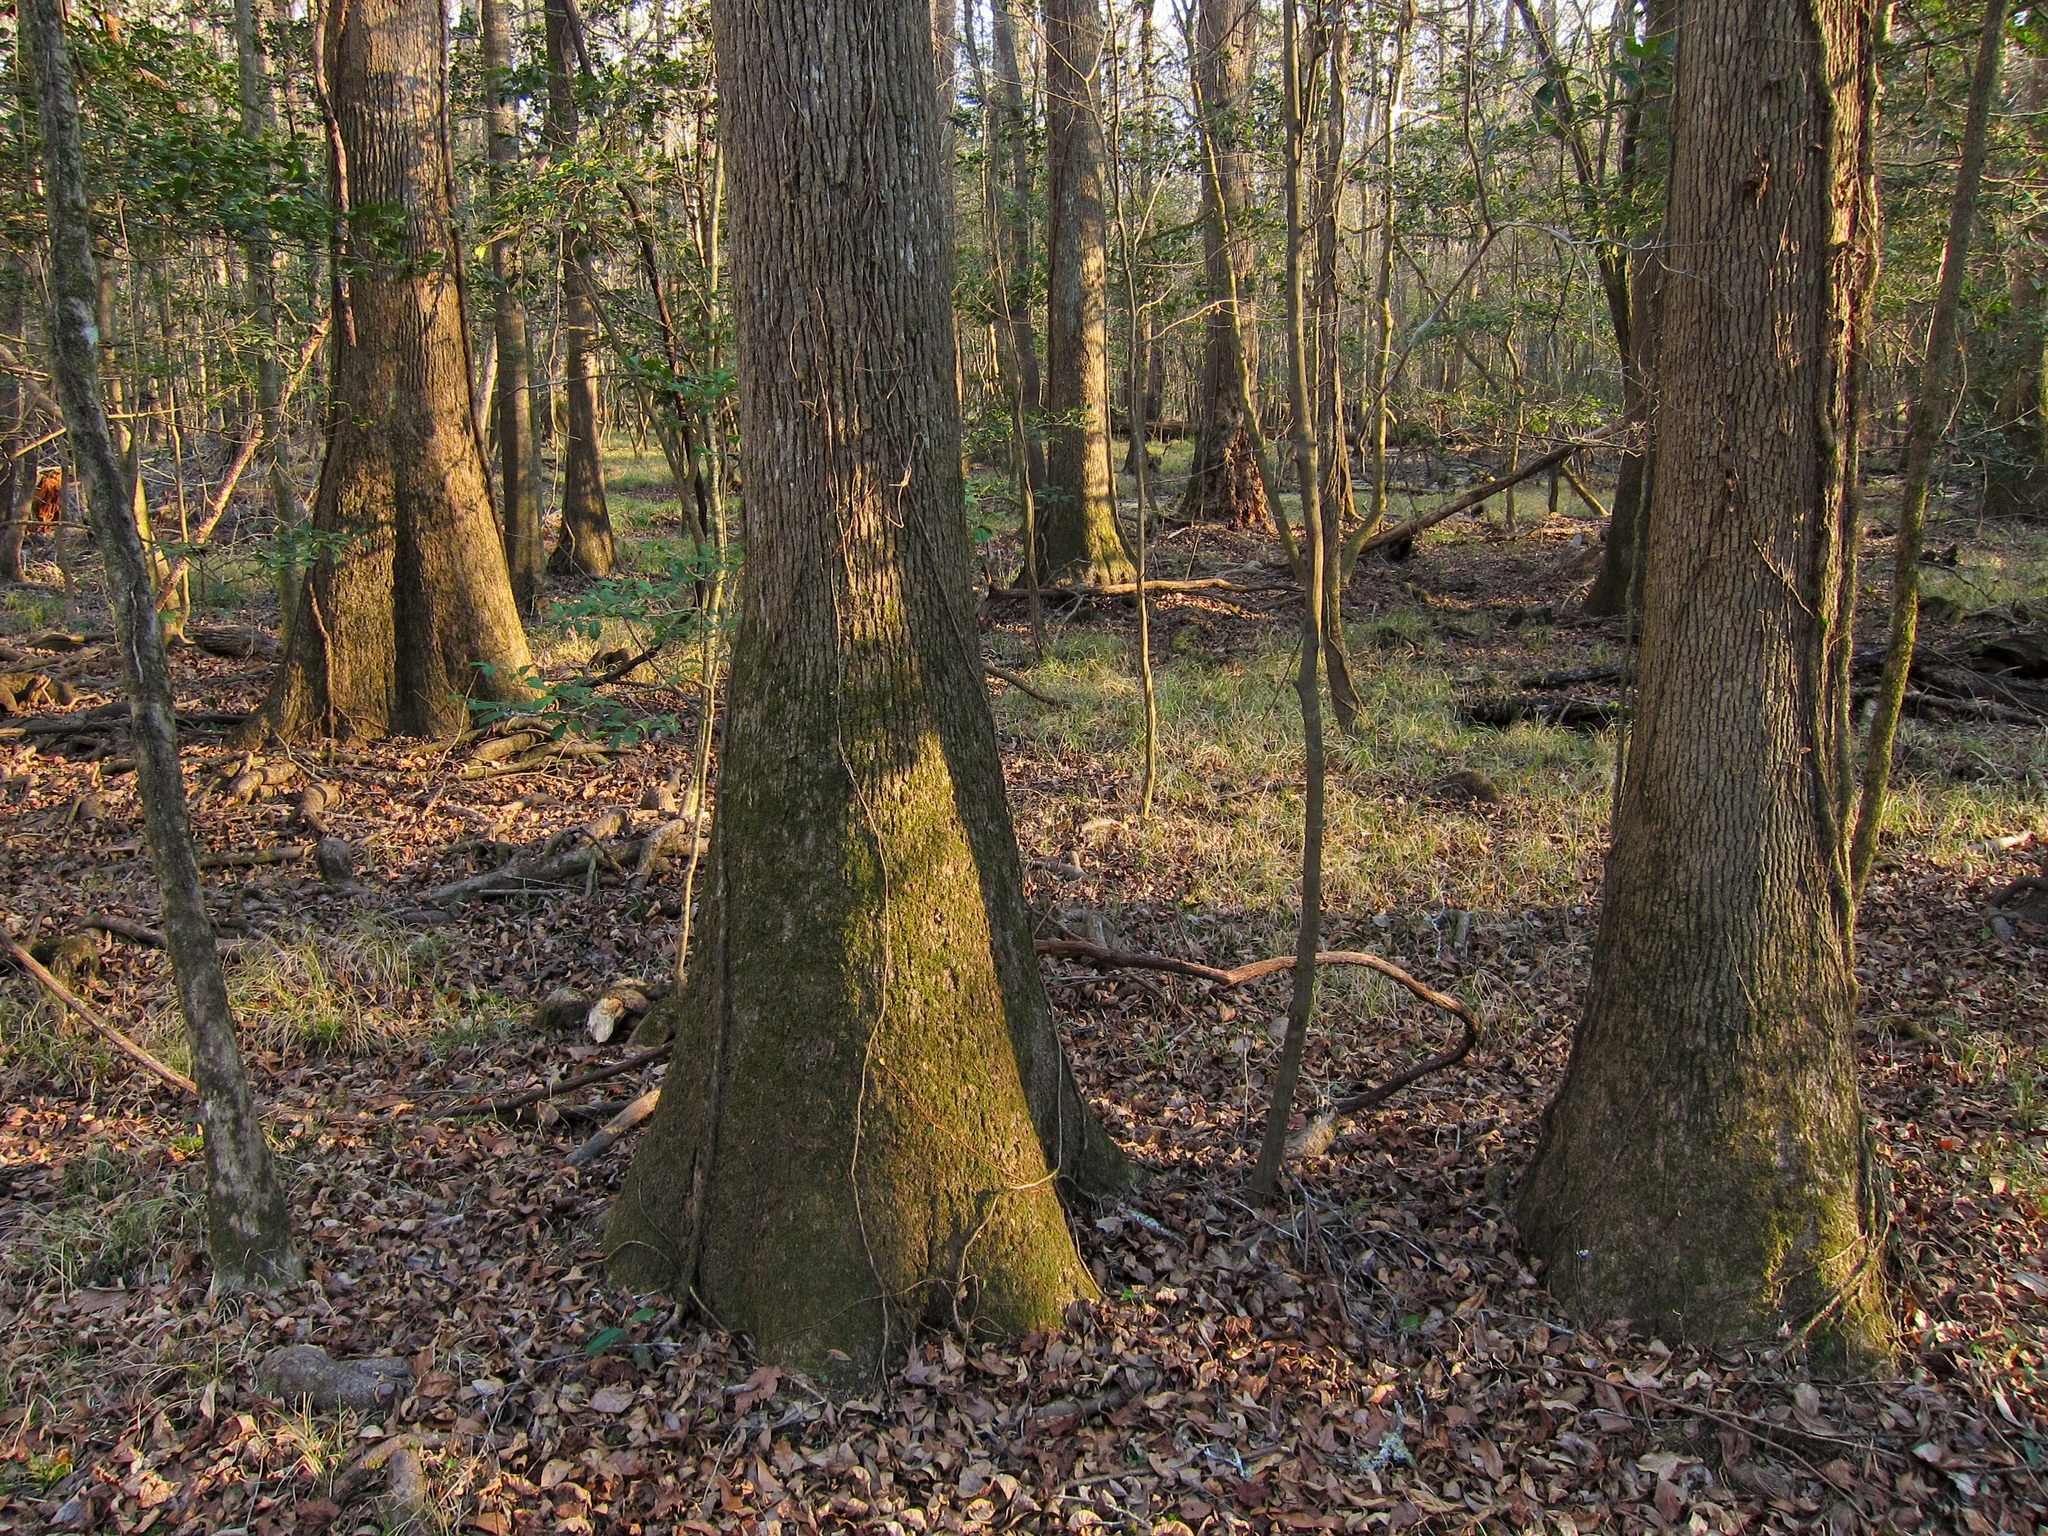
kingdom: Plantae
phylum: Tracheophyta
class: Magnoliopsida
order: Cornales
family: Nyssaceae
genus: Nyssa
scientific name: Nyssa aquatica
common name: Swamp tupelo
